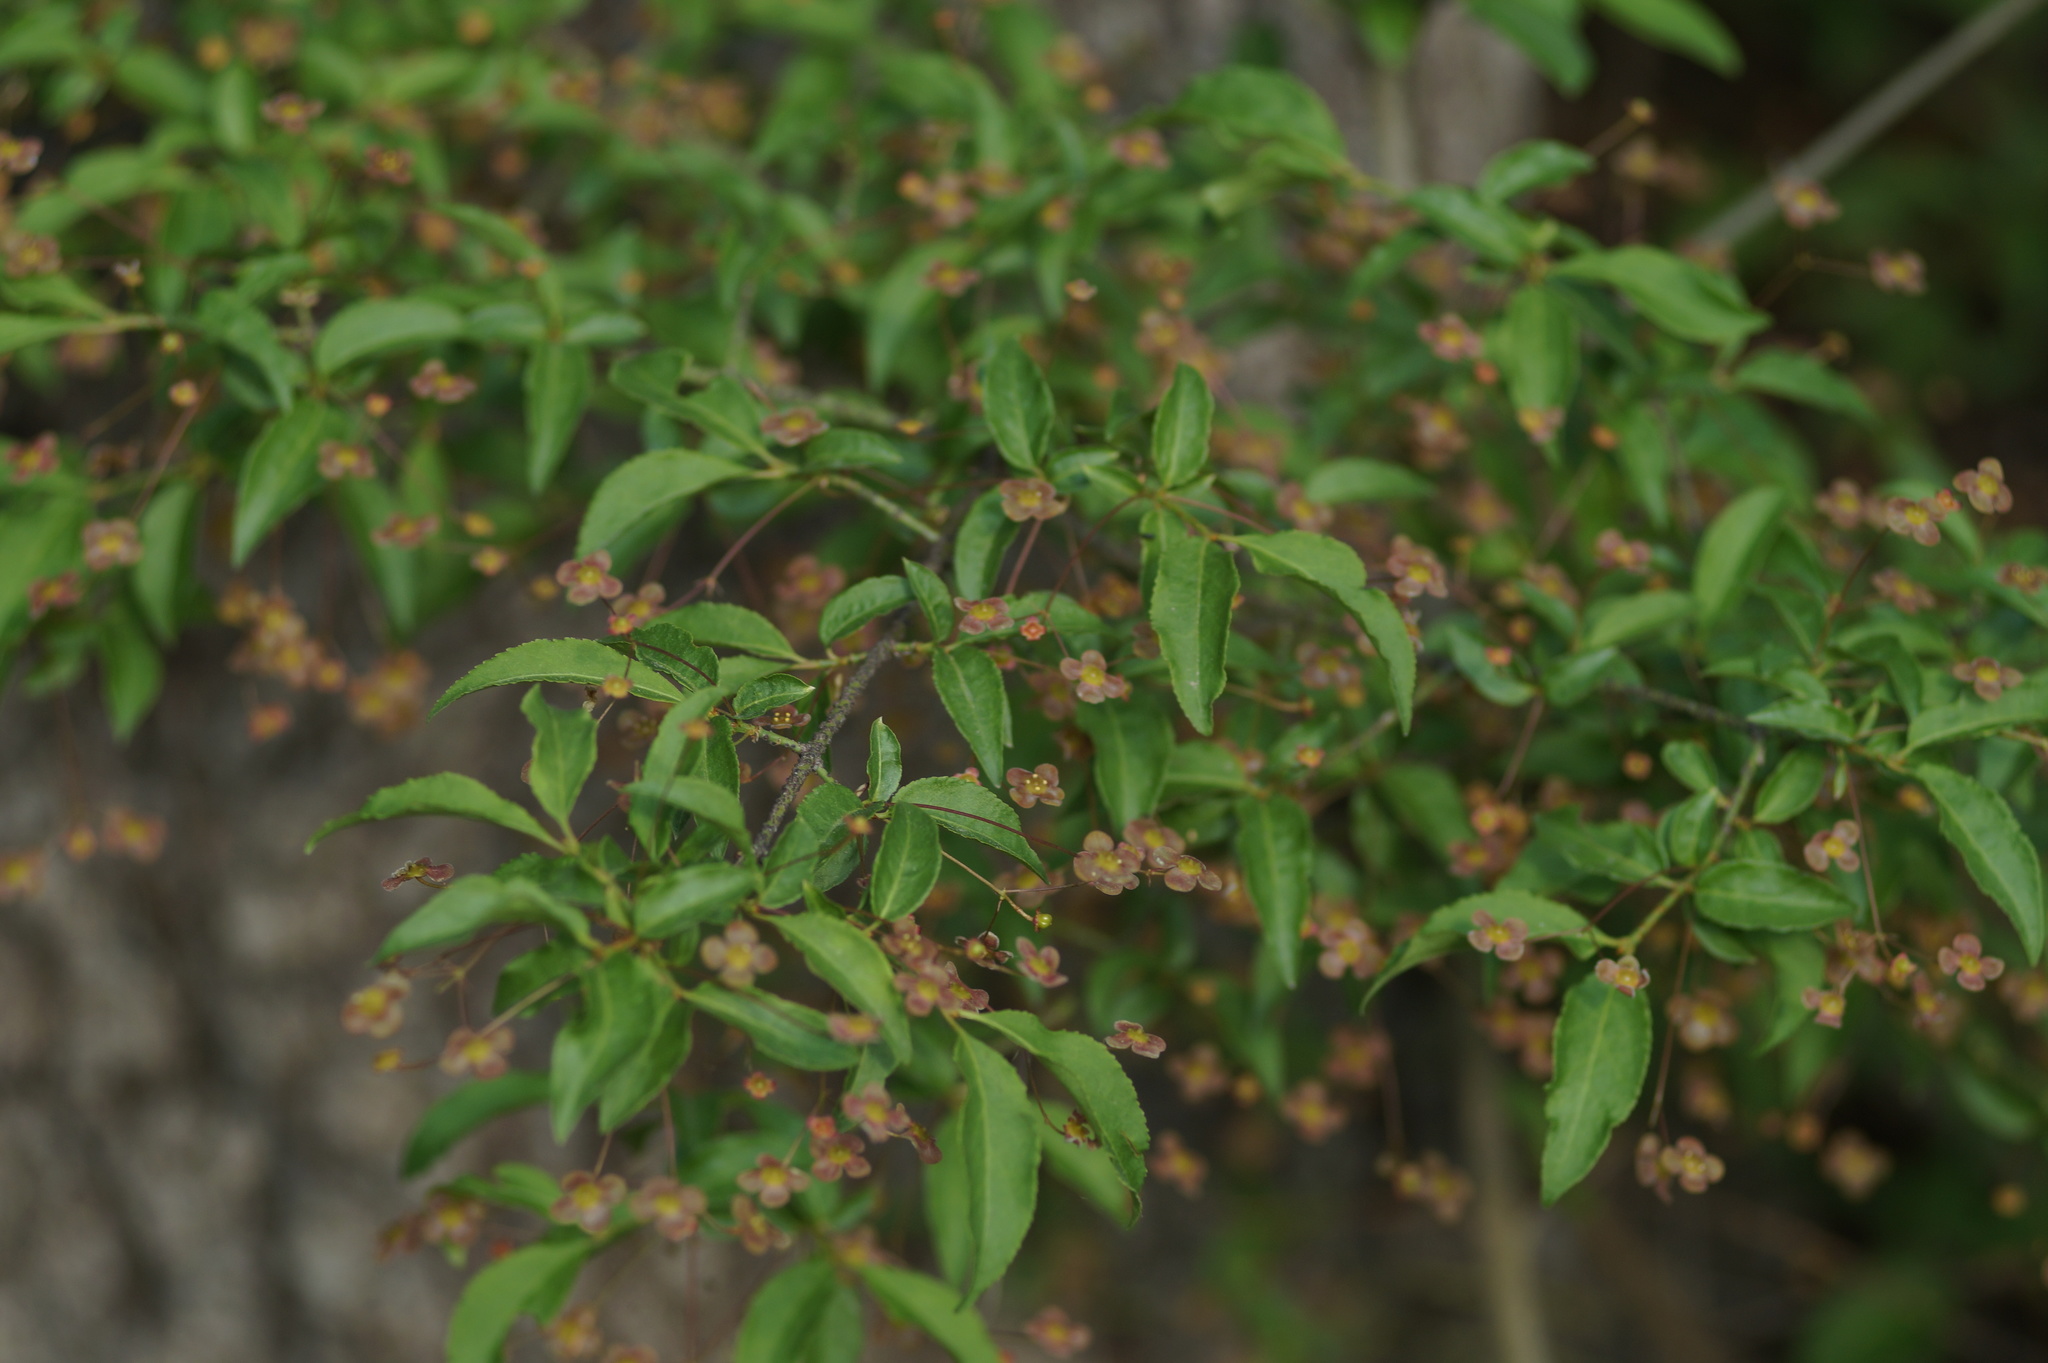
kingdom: Plantae
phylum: Tracheophyta
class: Magnoliopsida
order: Celastrales
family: Celastraceae
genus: Euonymus
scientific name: Euonymus verrucosus
